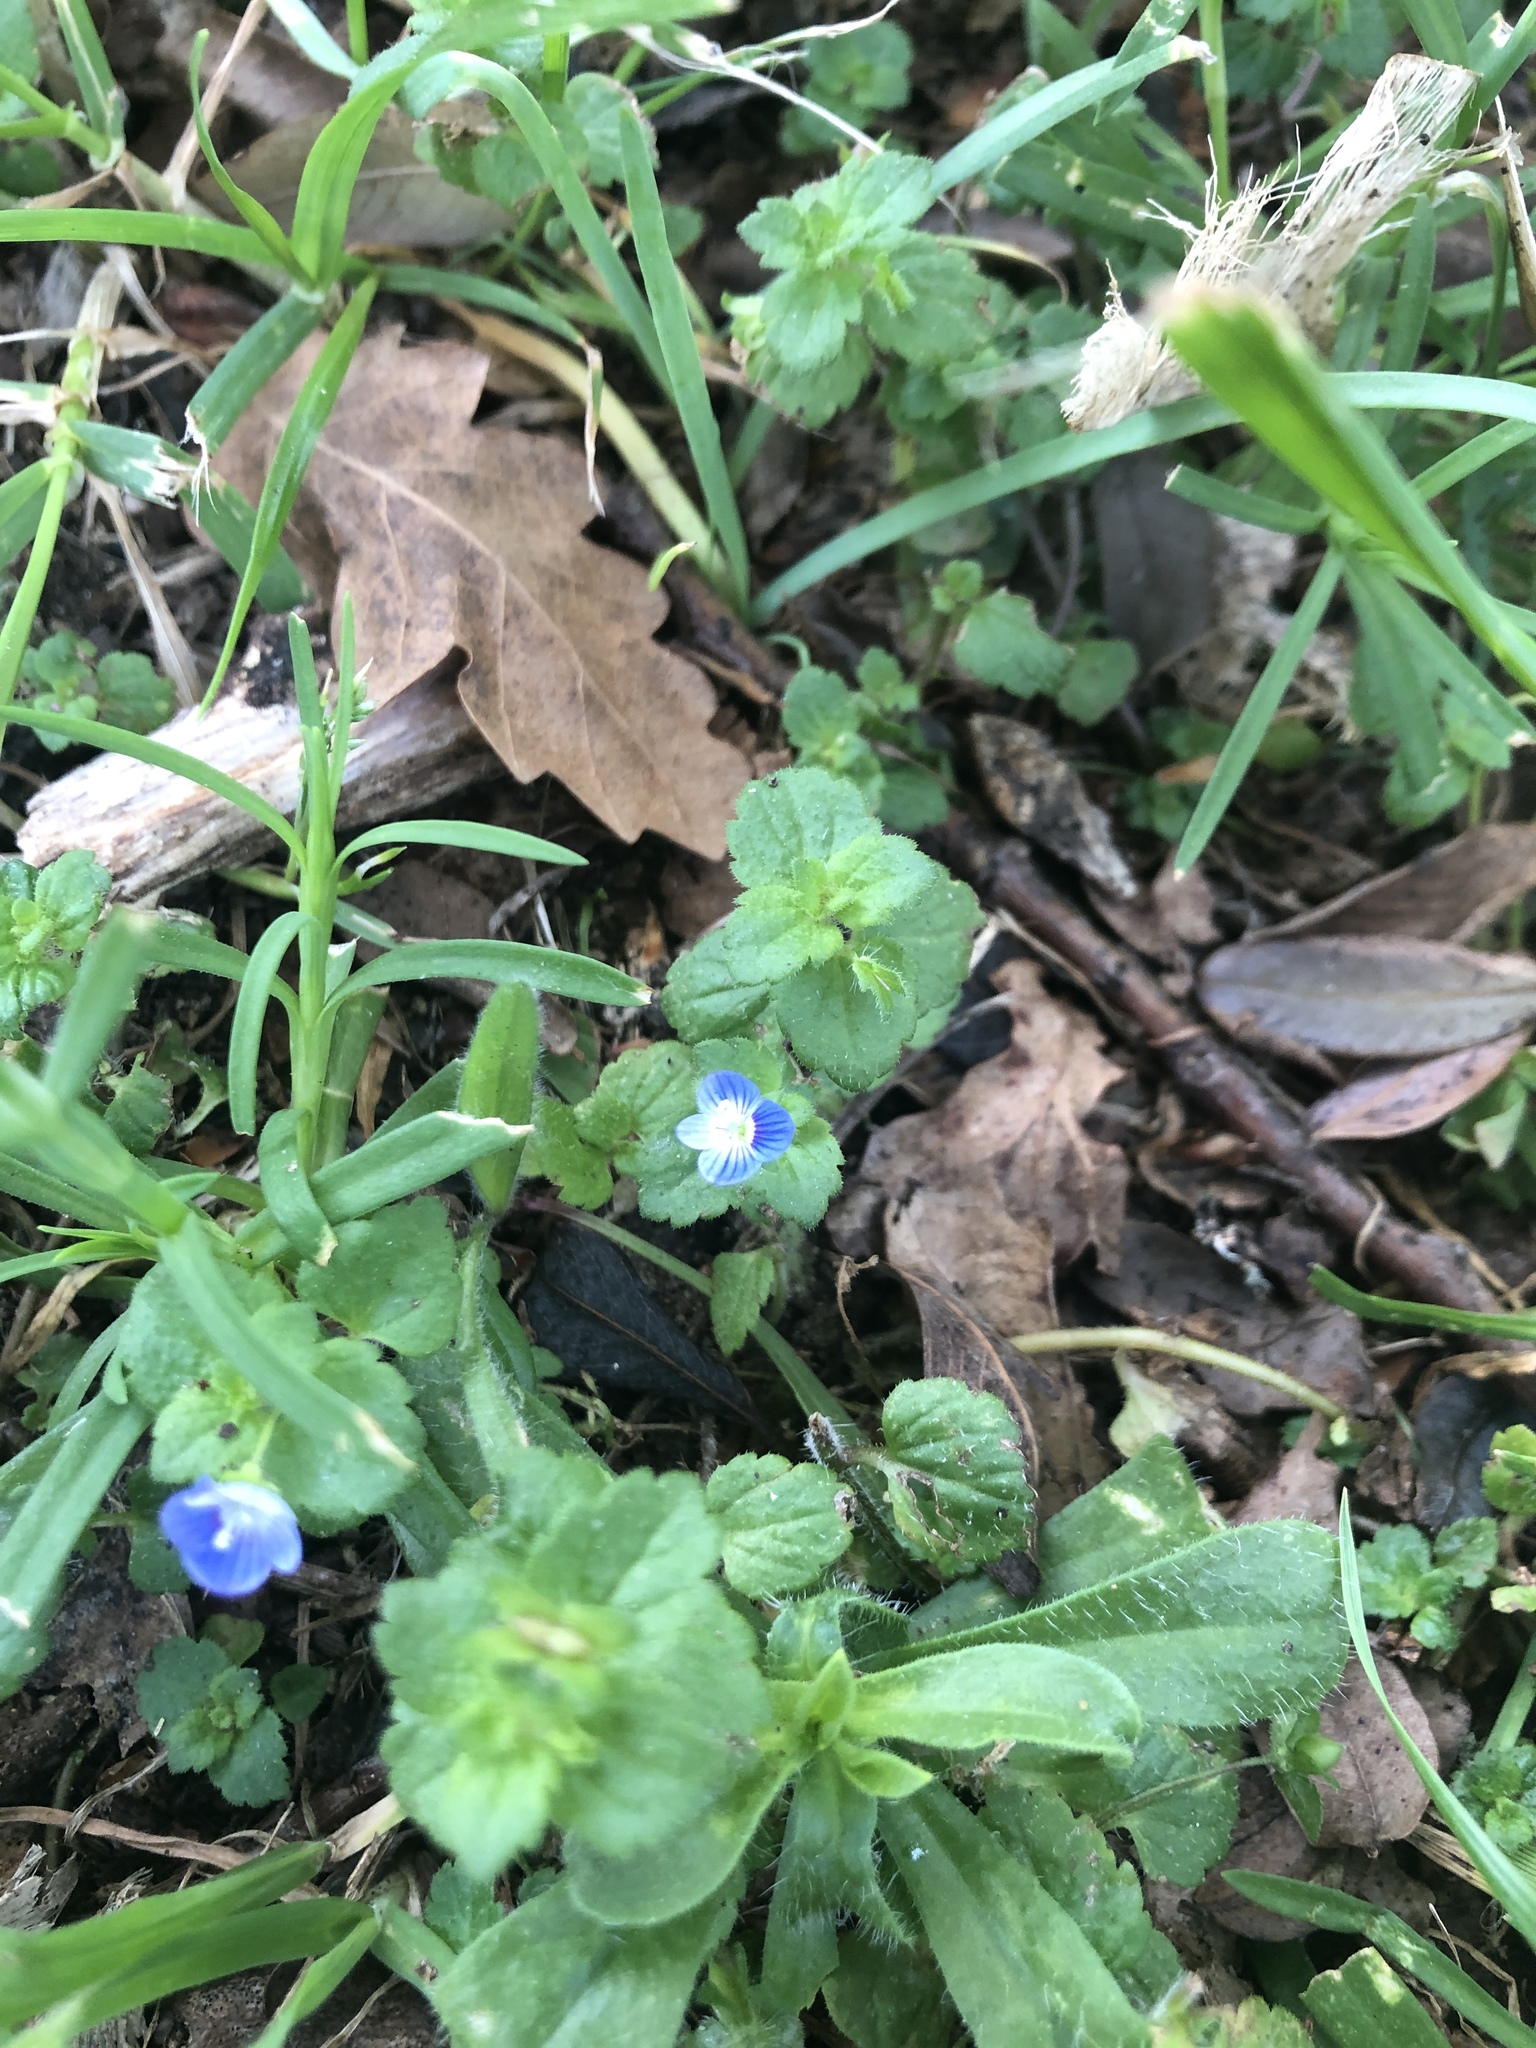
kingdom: Plantae
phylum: Tracheophyta
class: Magnoliopsida
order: Lamiales
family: Plantaginaceae
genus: Veronica
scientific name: Veronica persica
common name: Common field-speedwell
